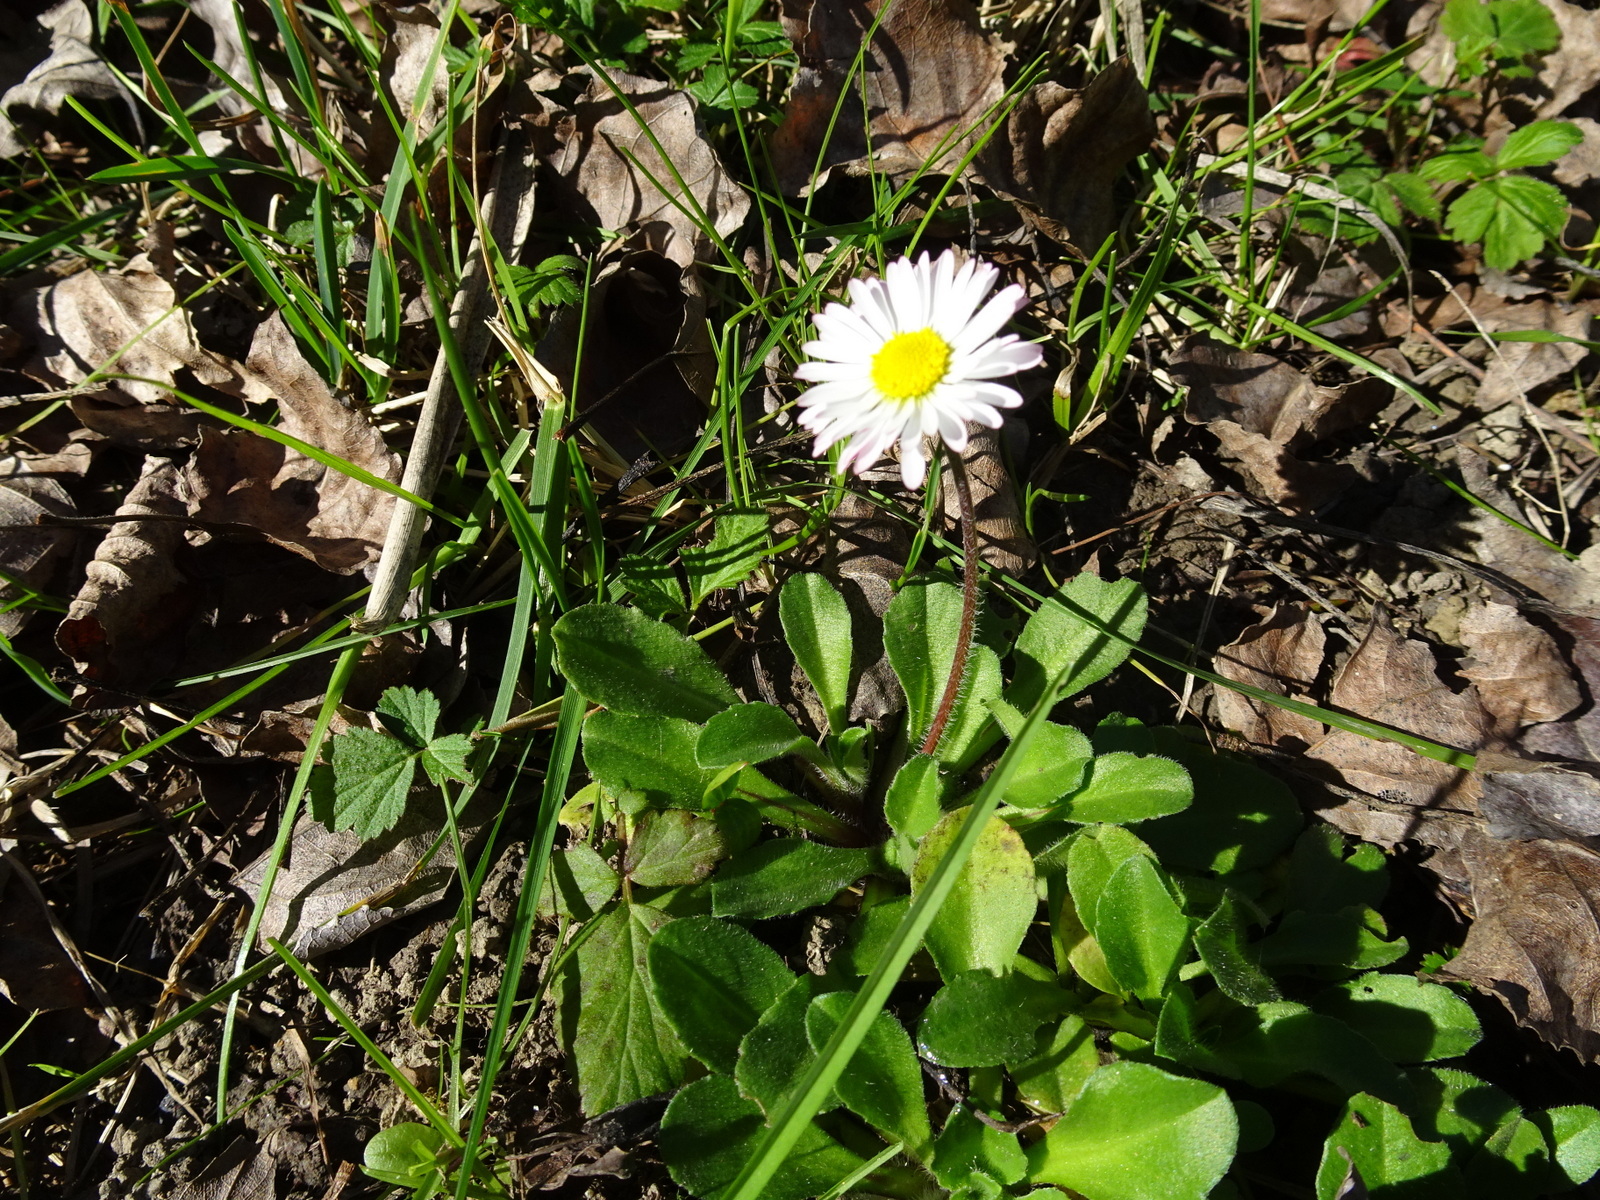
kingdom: Plantae
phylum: Tracheophyta
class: Magnoliopsida
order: Asterales
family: Asteraceae
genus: Bellis
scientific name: Bellis perennis
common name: Lawndaisy
